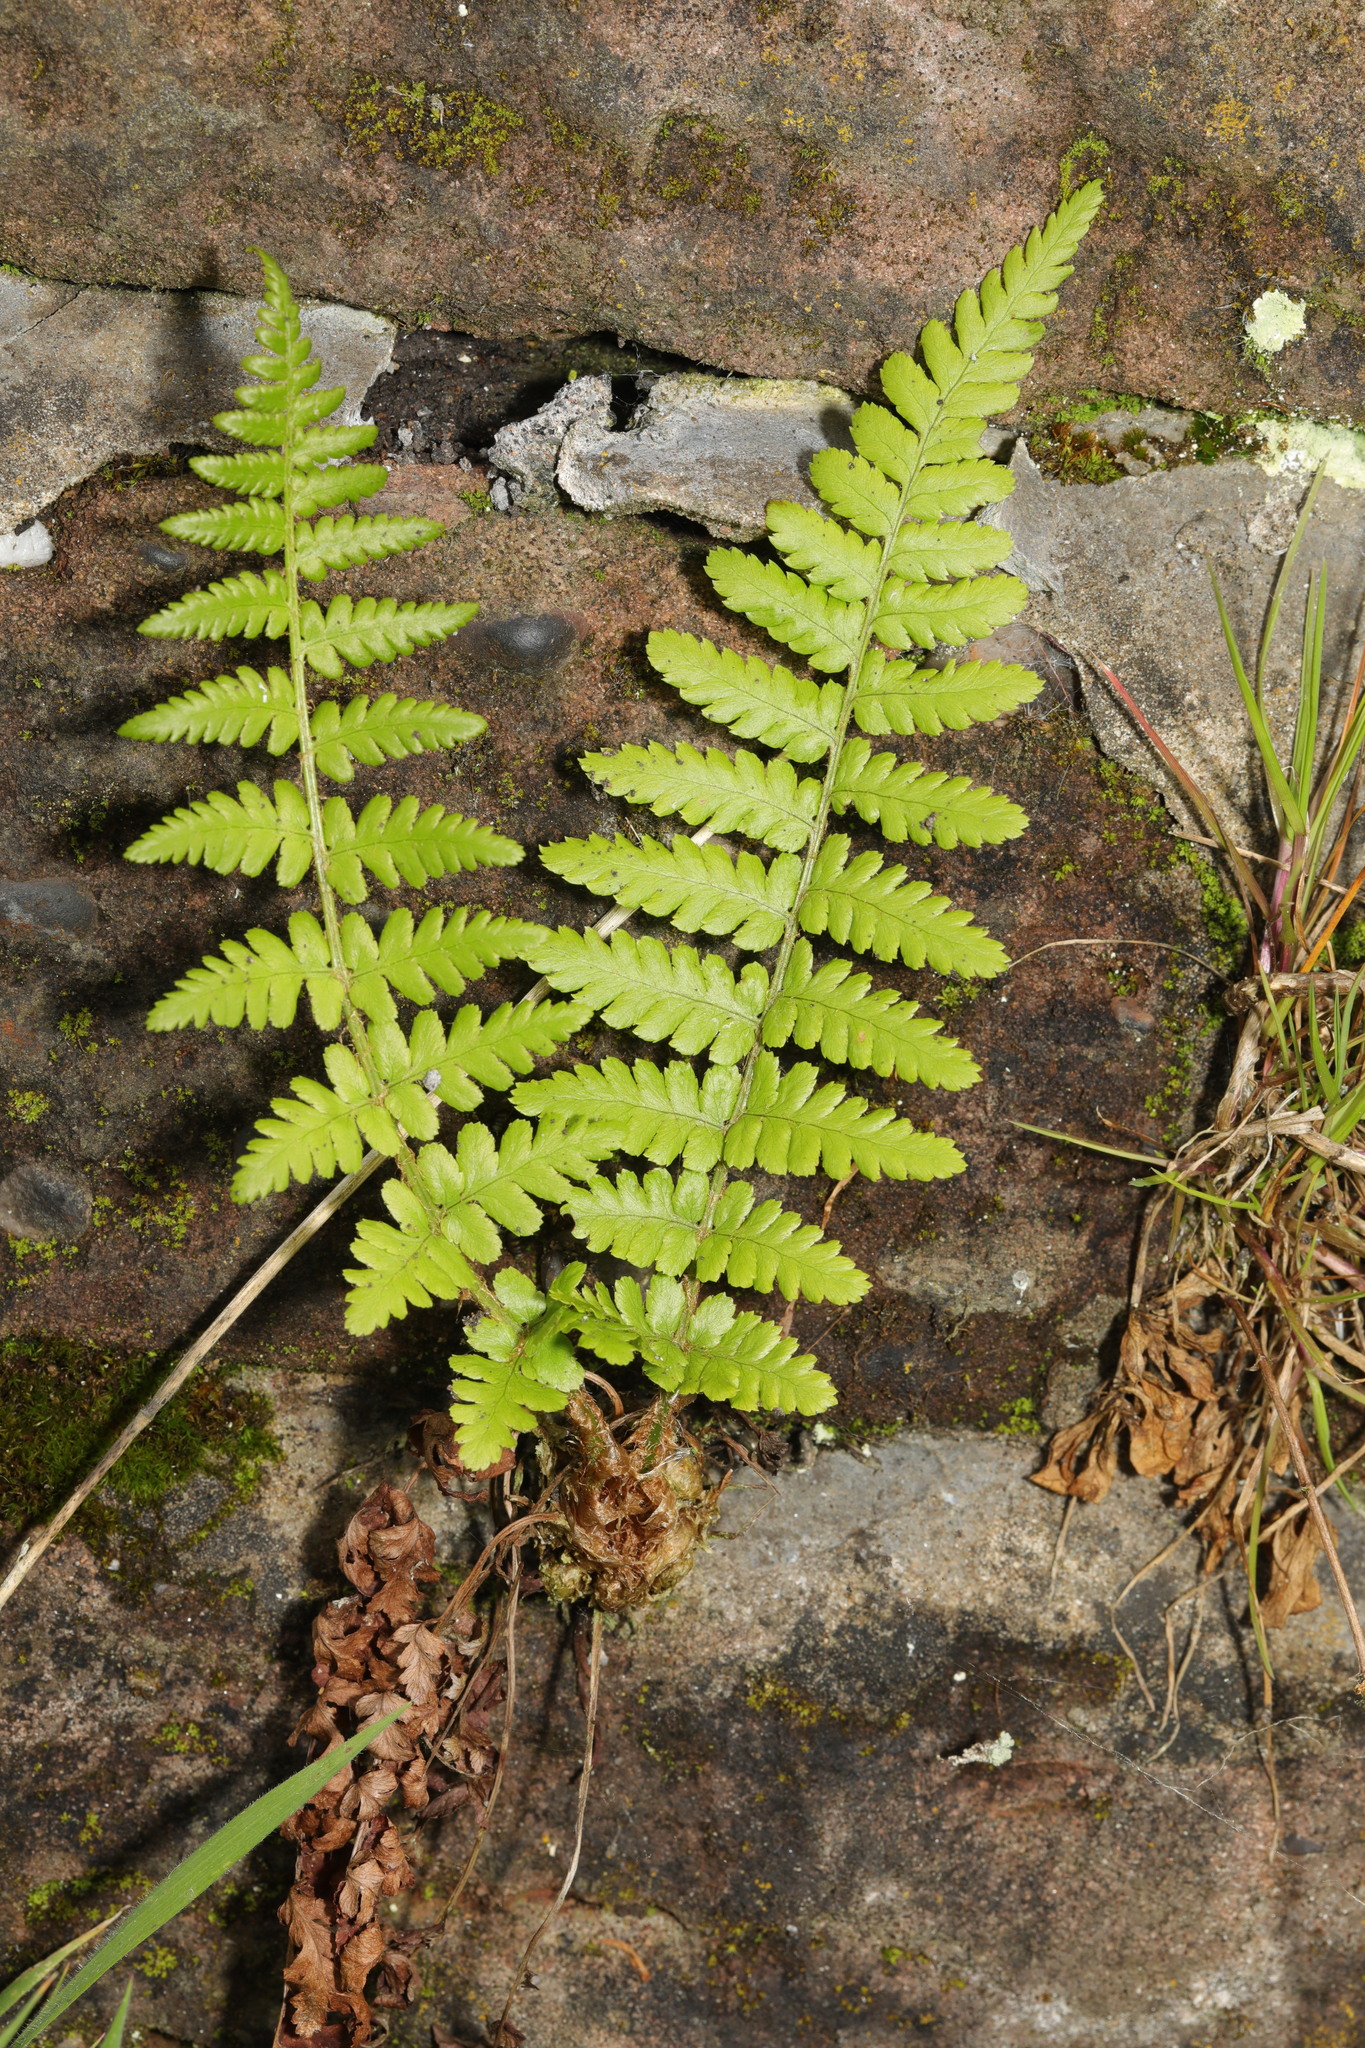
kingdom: Plantae
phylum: Tracheophyta
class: Polypodiopsida
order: Polypodiales
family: Dryopteridaceae
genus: Dryopteris
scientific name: Dryopteris filix-mas
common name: Male fern
